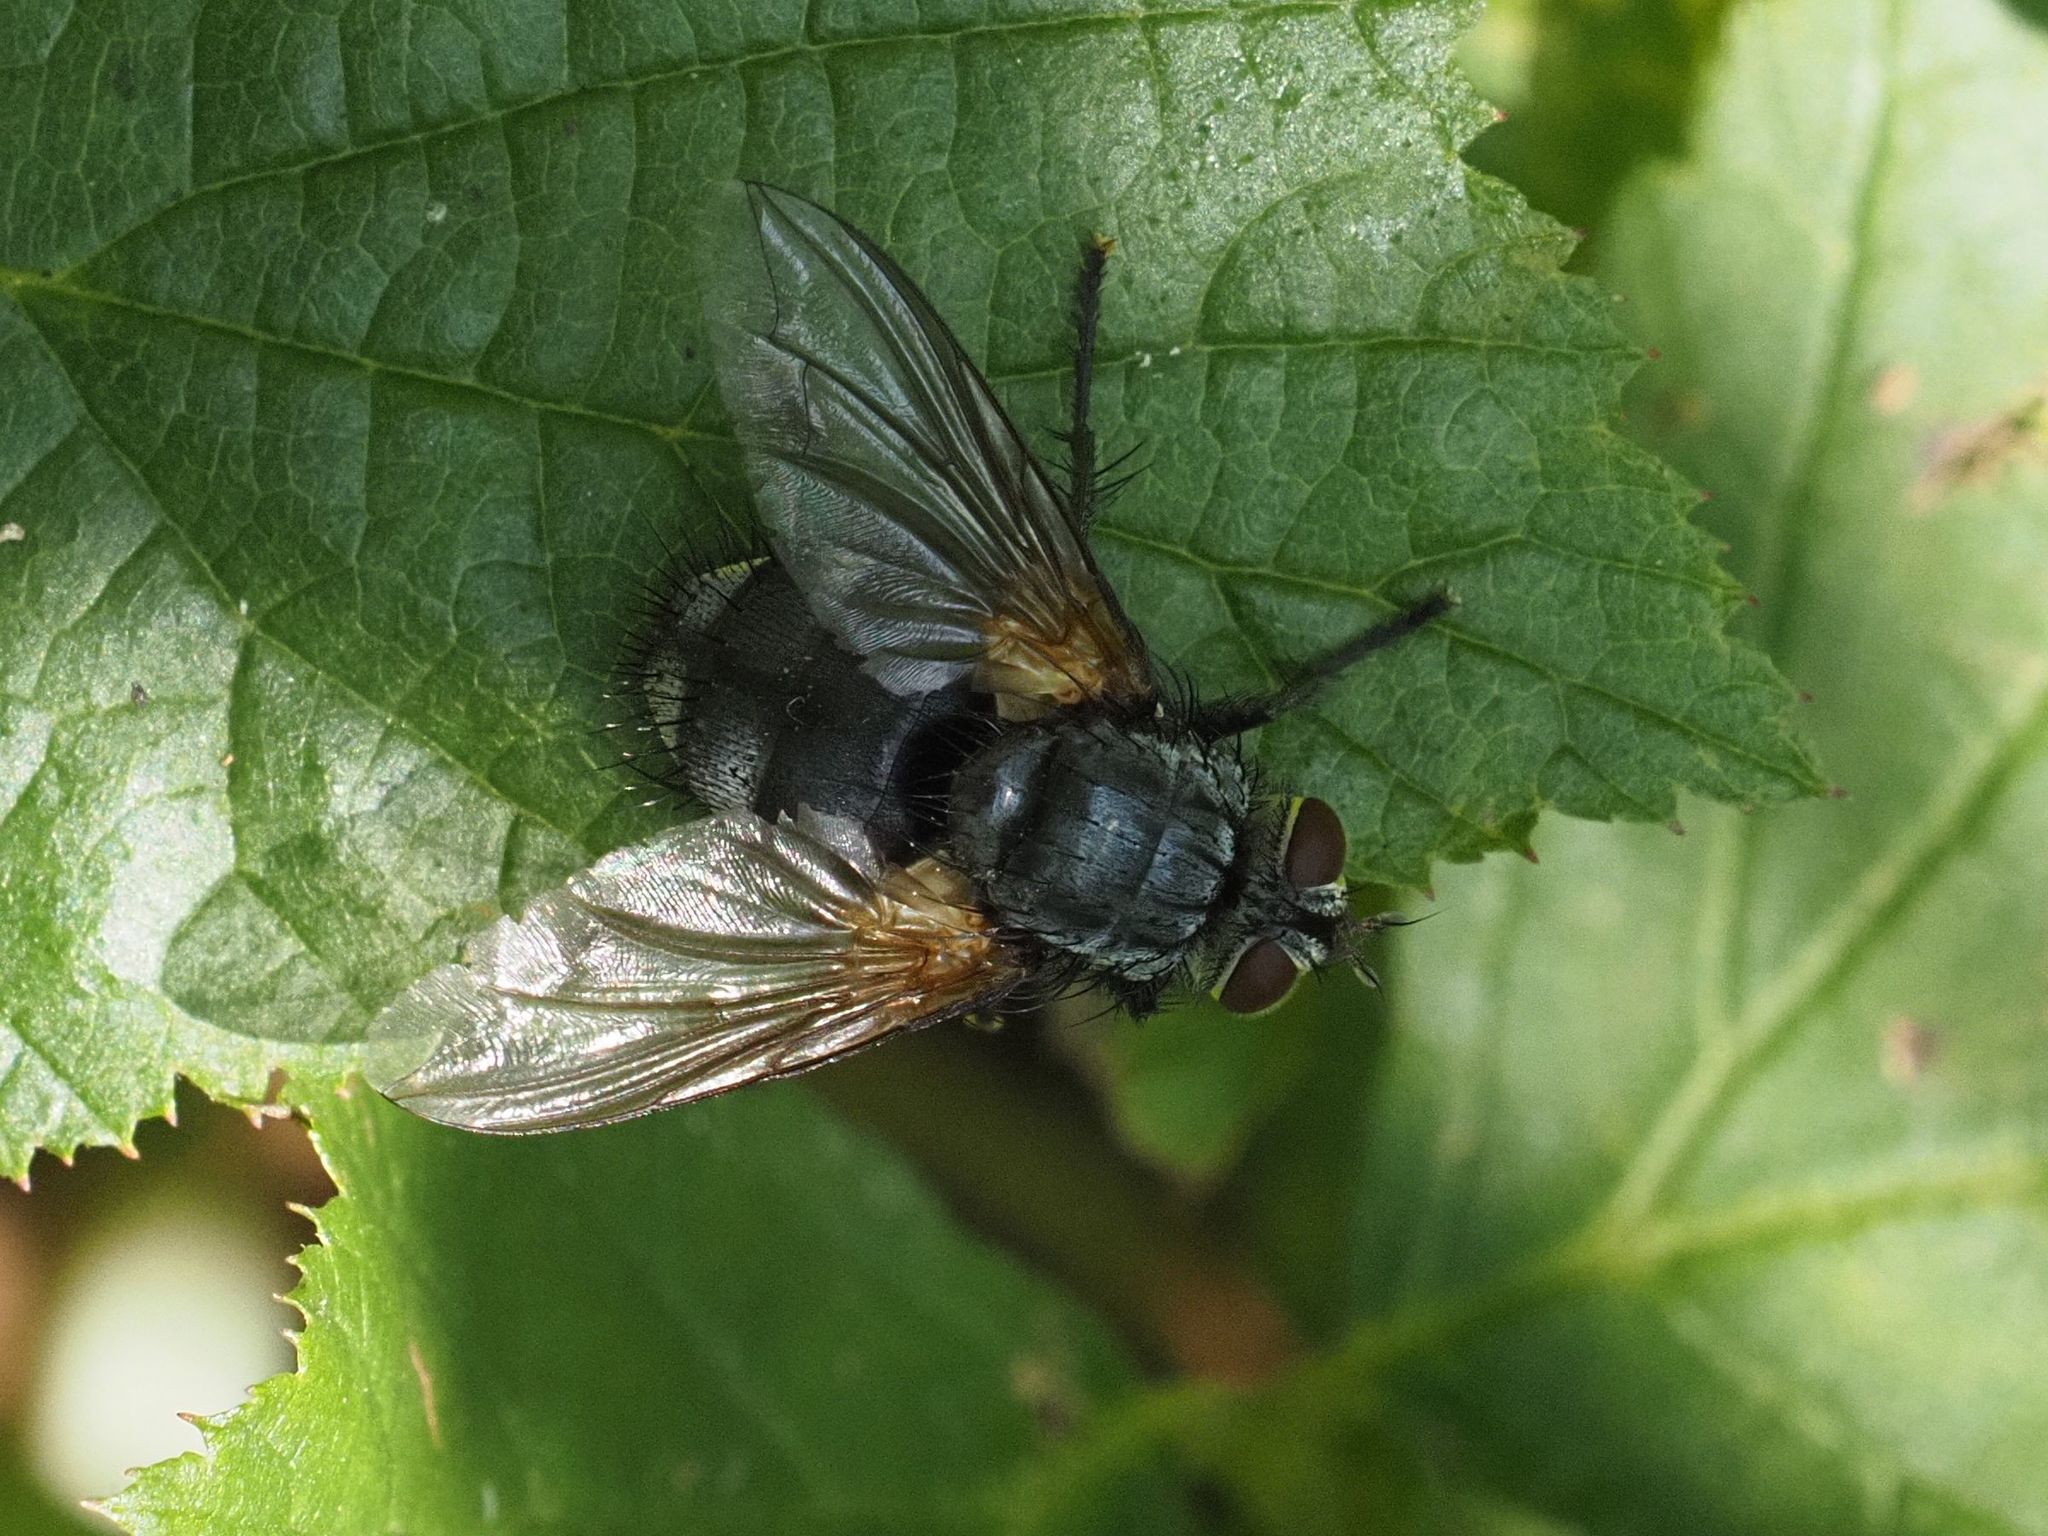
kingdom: Animalia
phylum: Arthropoda
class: Insecta
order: Diptera
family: Tachinidae
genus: Nemoraea
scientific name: Nemoraea pellucida
